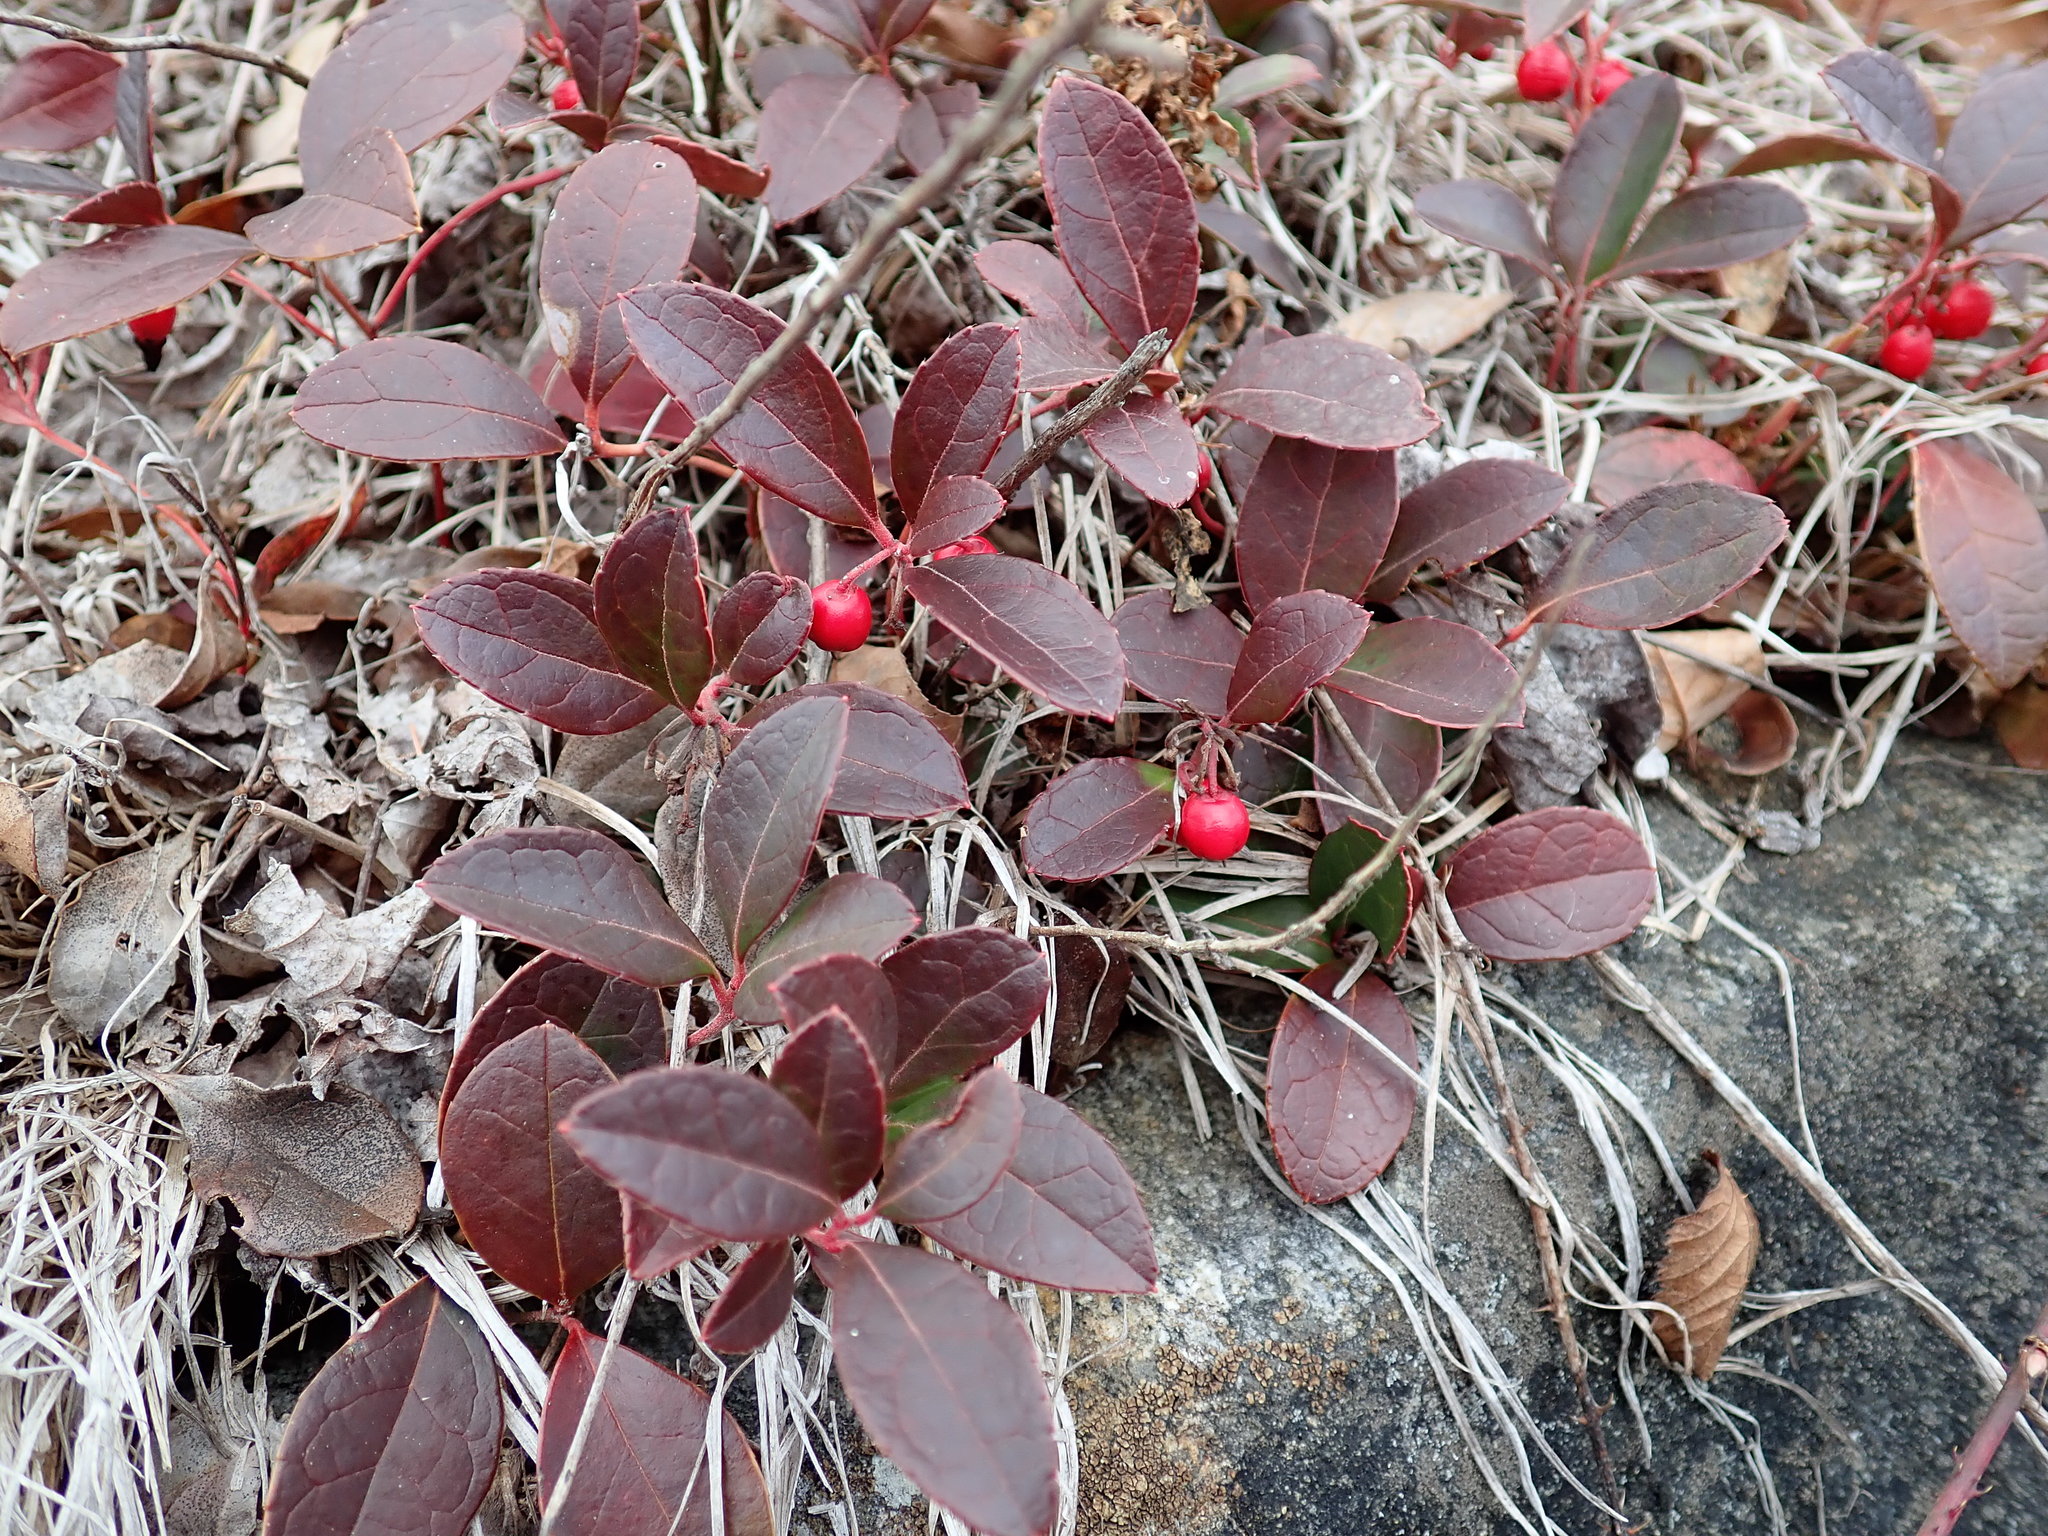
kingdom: Plantae
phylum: Tracheophyta
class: Magnoliopsida
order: Ericales
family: Ericaceae
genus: Gaultheria
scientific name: Gaultheria procumbens
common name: Checkerberry
